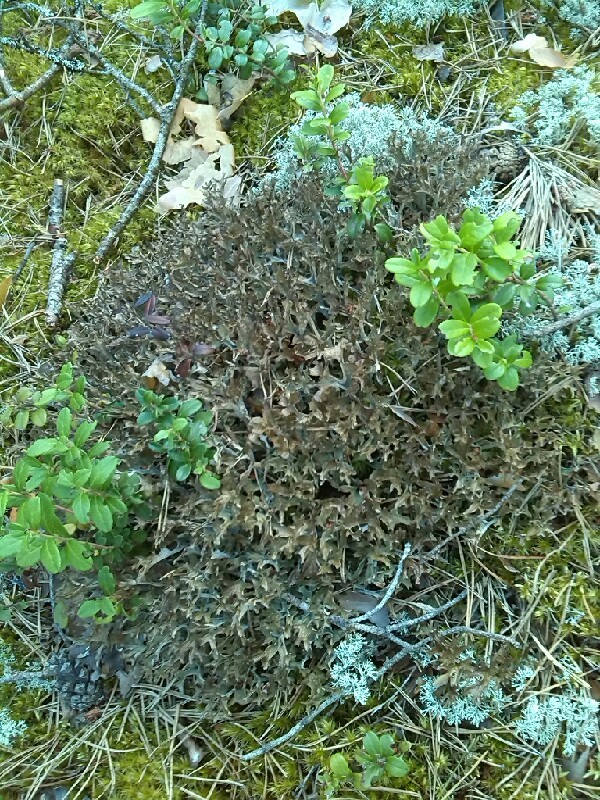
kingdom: Fungi
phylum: Ascomycota
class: Lecanoromycetes
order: Lecanorales
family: Parmeliaceae
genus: Cetraria
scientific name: Cetraria islandica
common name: Iceland lichen
